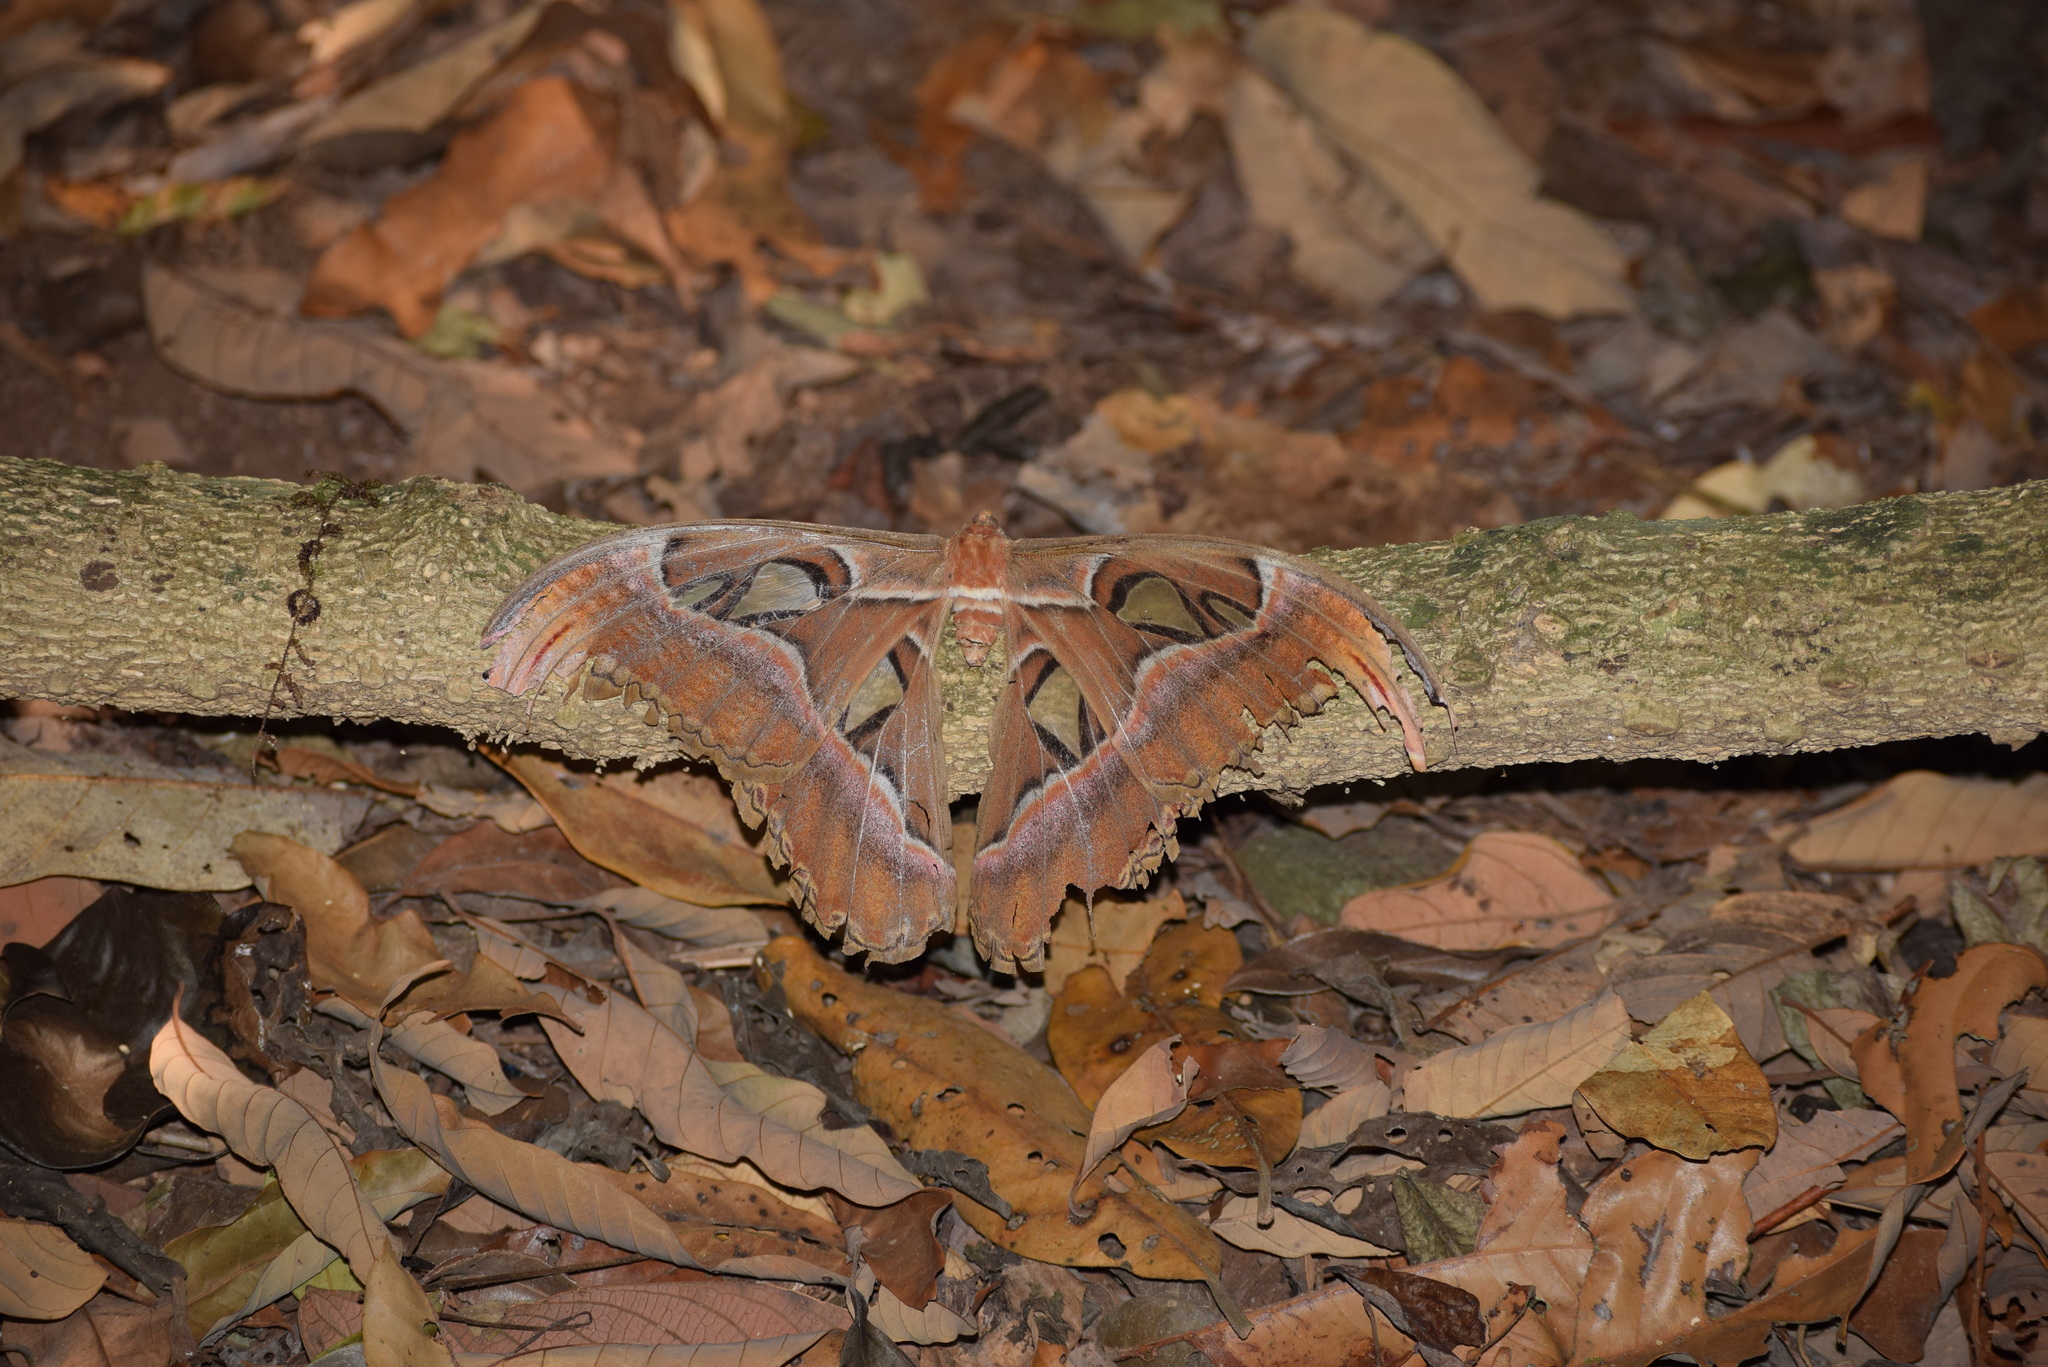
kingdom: Animalia
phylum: Arthropoda
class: Insecta
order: Lepidoptera
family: Saturniidae
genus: Attacus
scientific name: Attacus taprobanis
